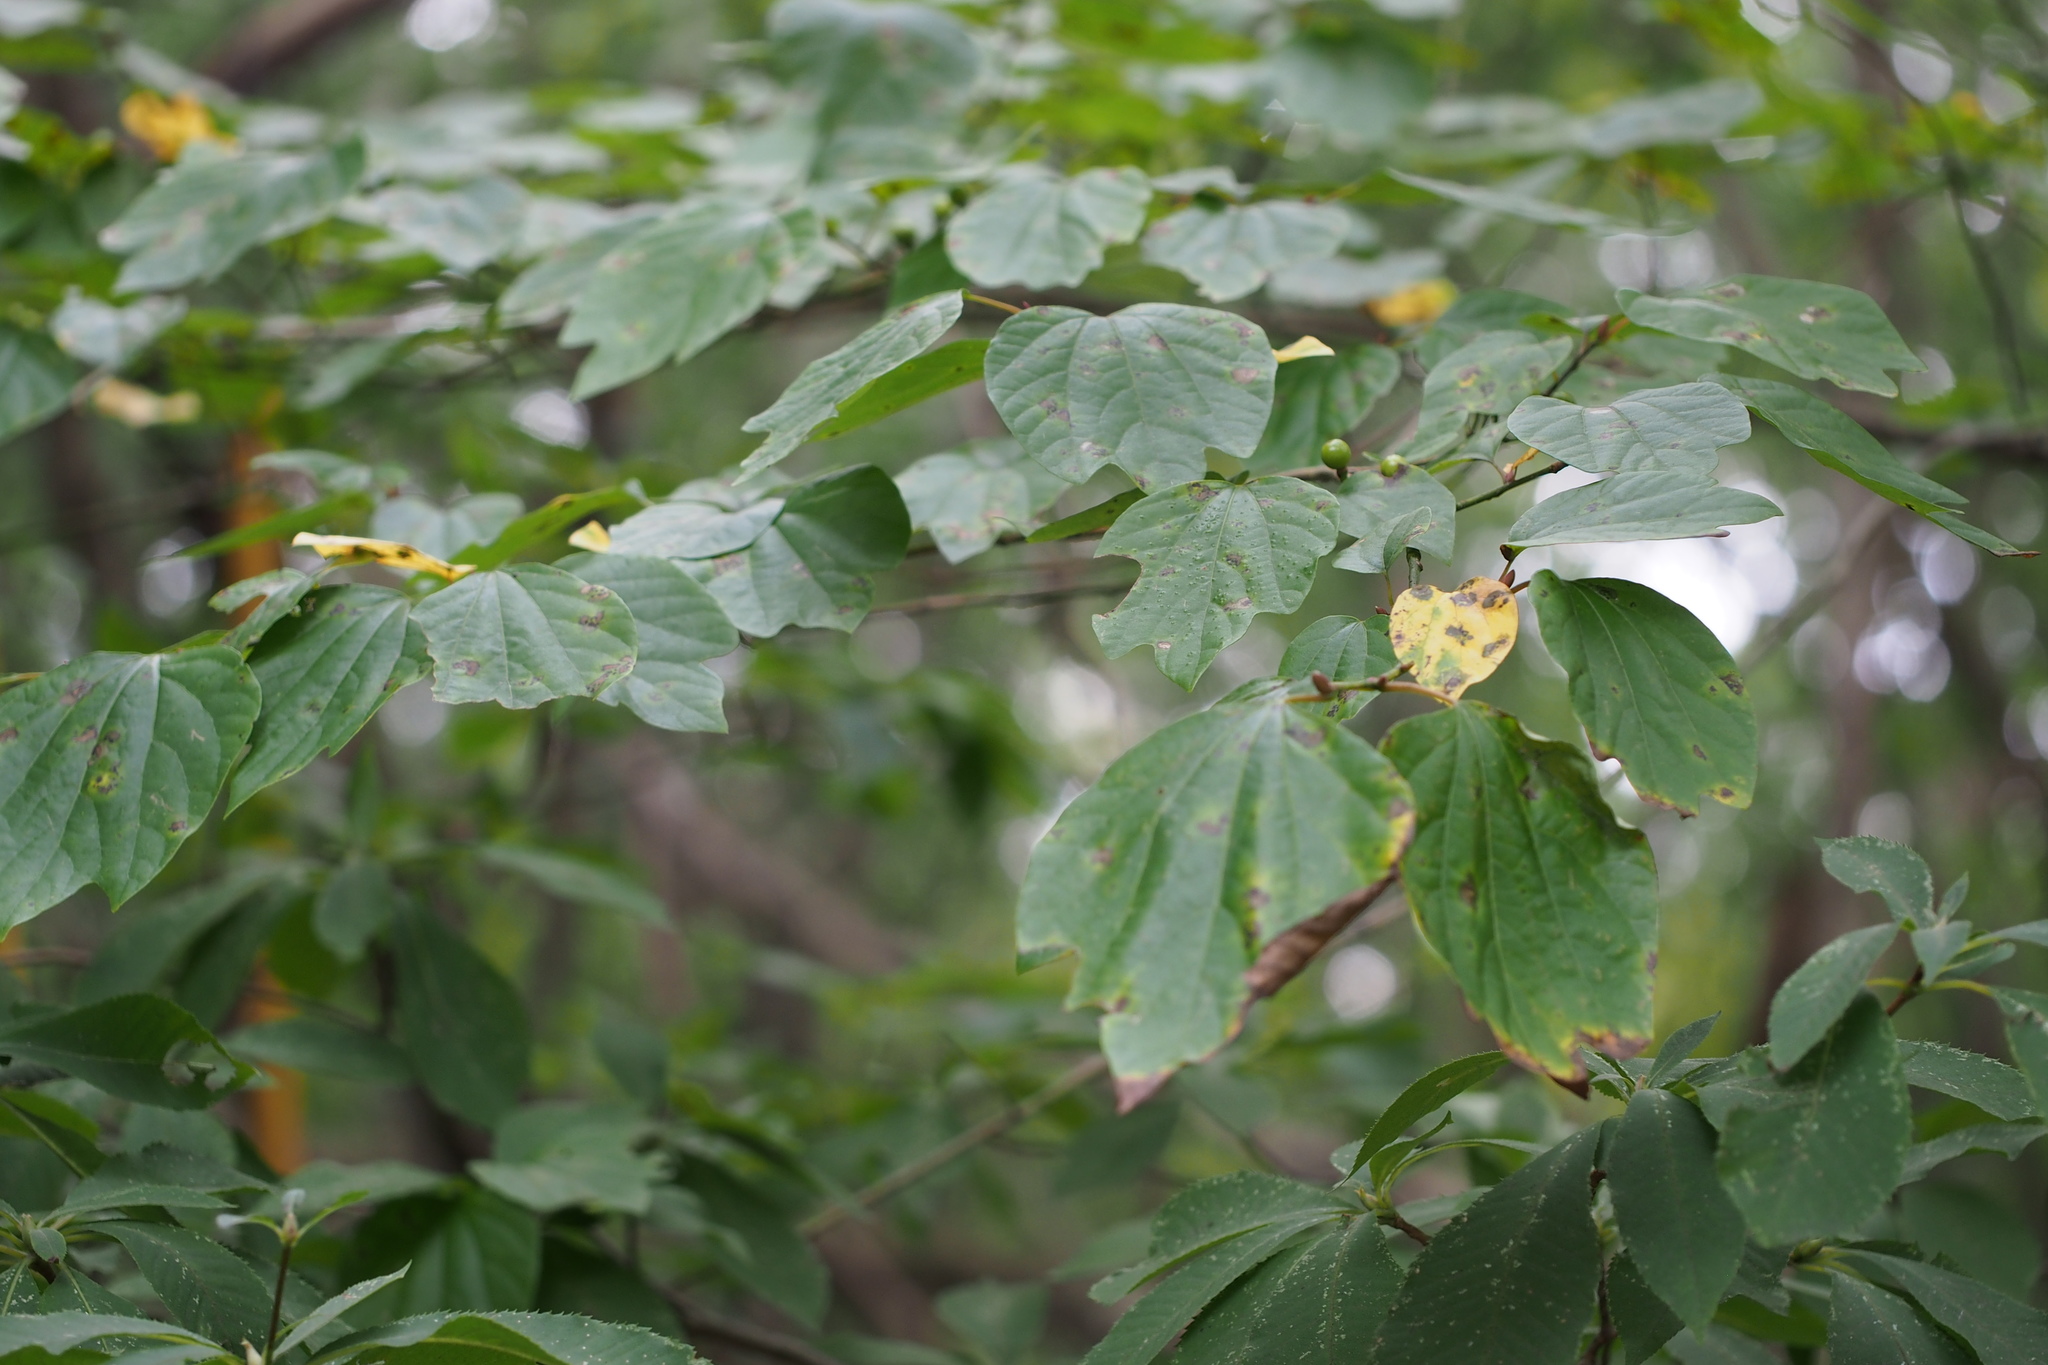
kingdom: Plantae
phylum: Tracheophyta
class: Magnoliopsida
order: Laurales
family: Lauraceae
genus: Lindera
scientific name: Lindera obtusiloba
